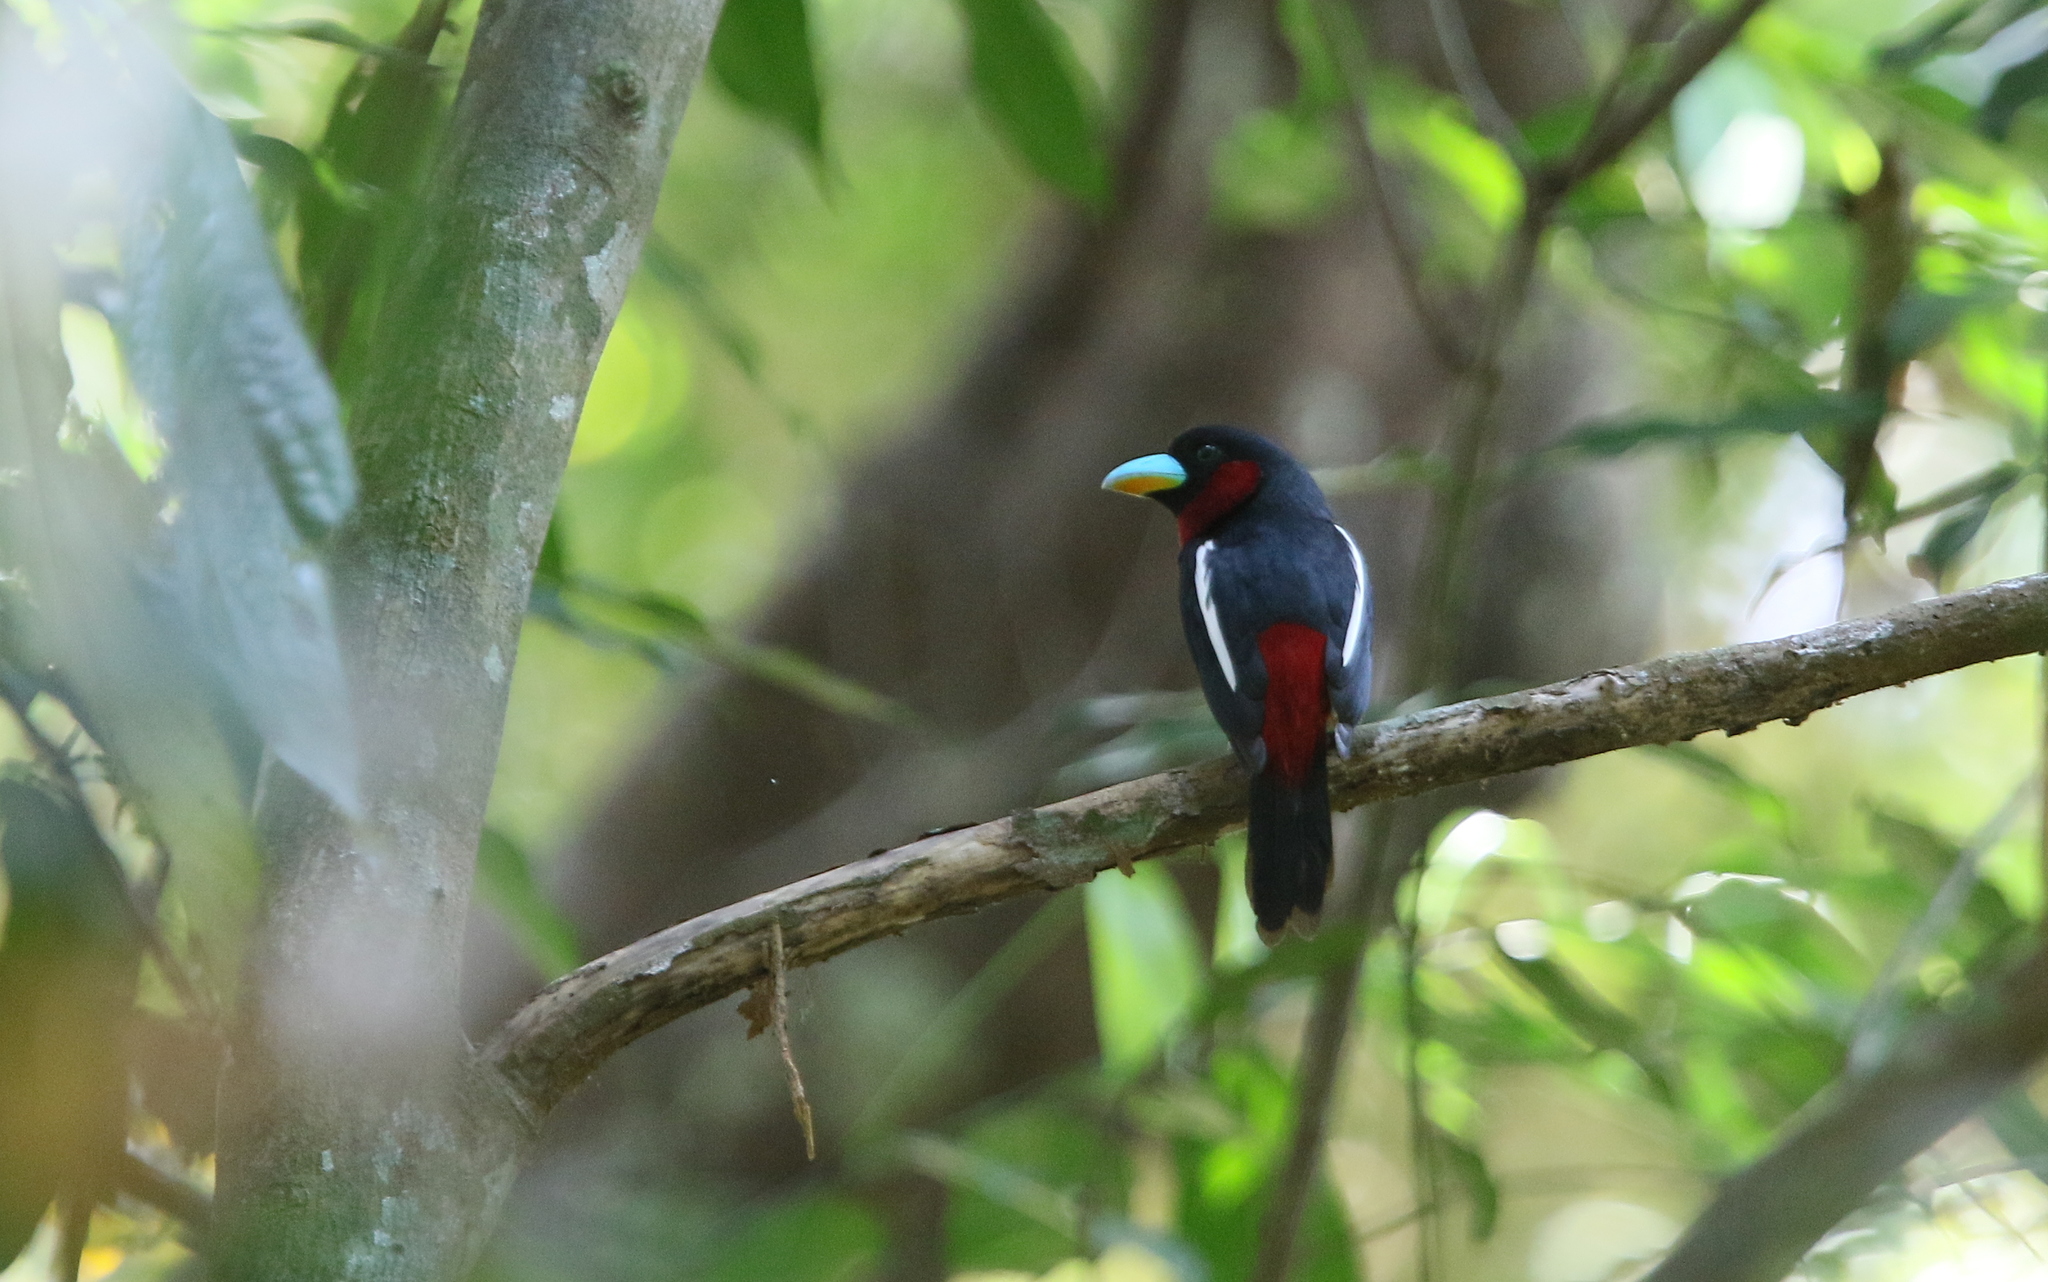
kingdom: Animalia
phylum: Chordata
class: Aves
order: Passeriformes
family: Eurylaimidae
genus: Cymbirhynchus
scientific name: Cymbirhynchus macrorhynchos
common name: Black-and-red broadbill
